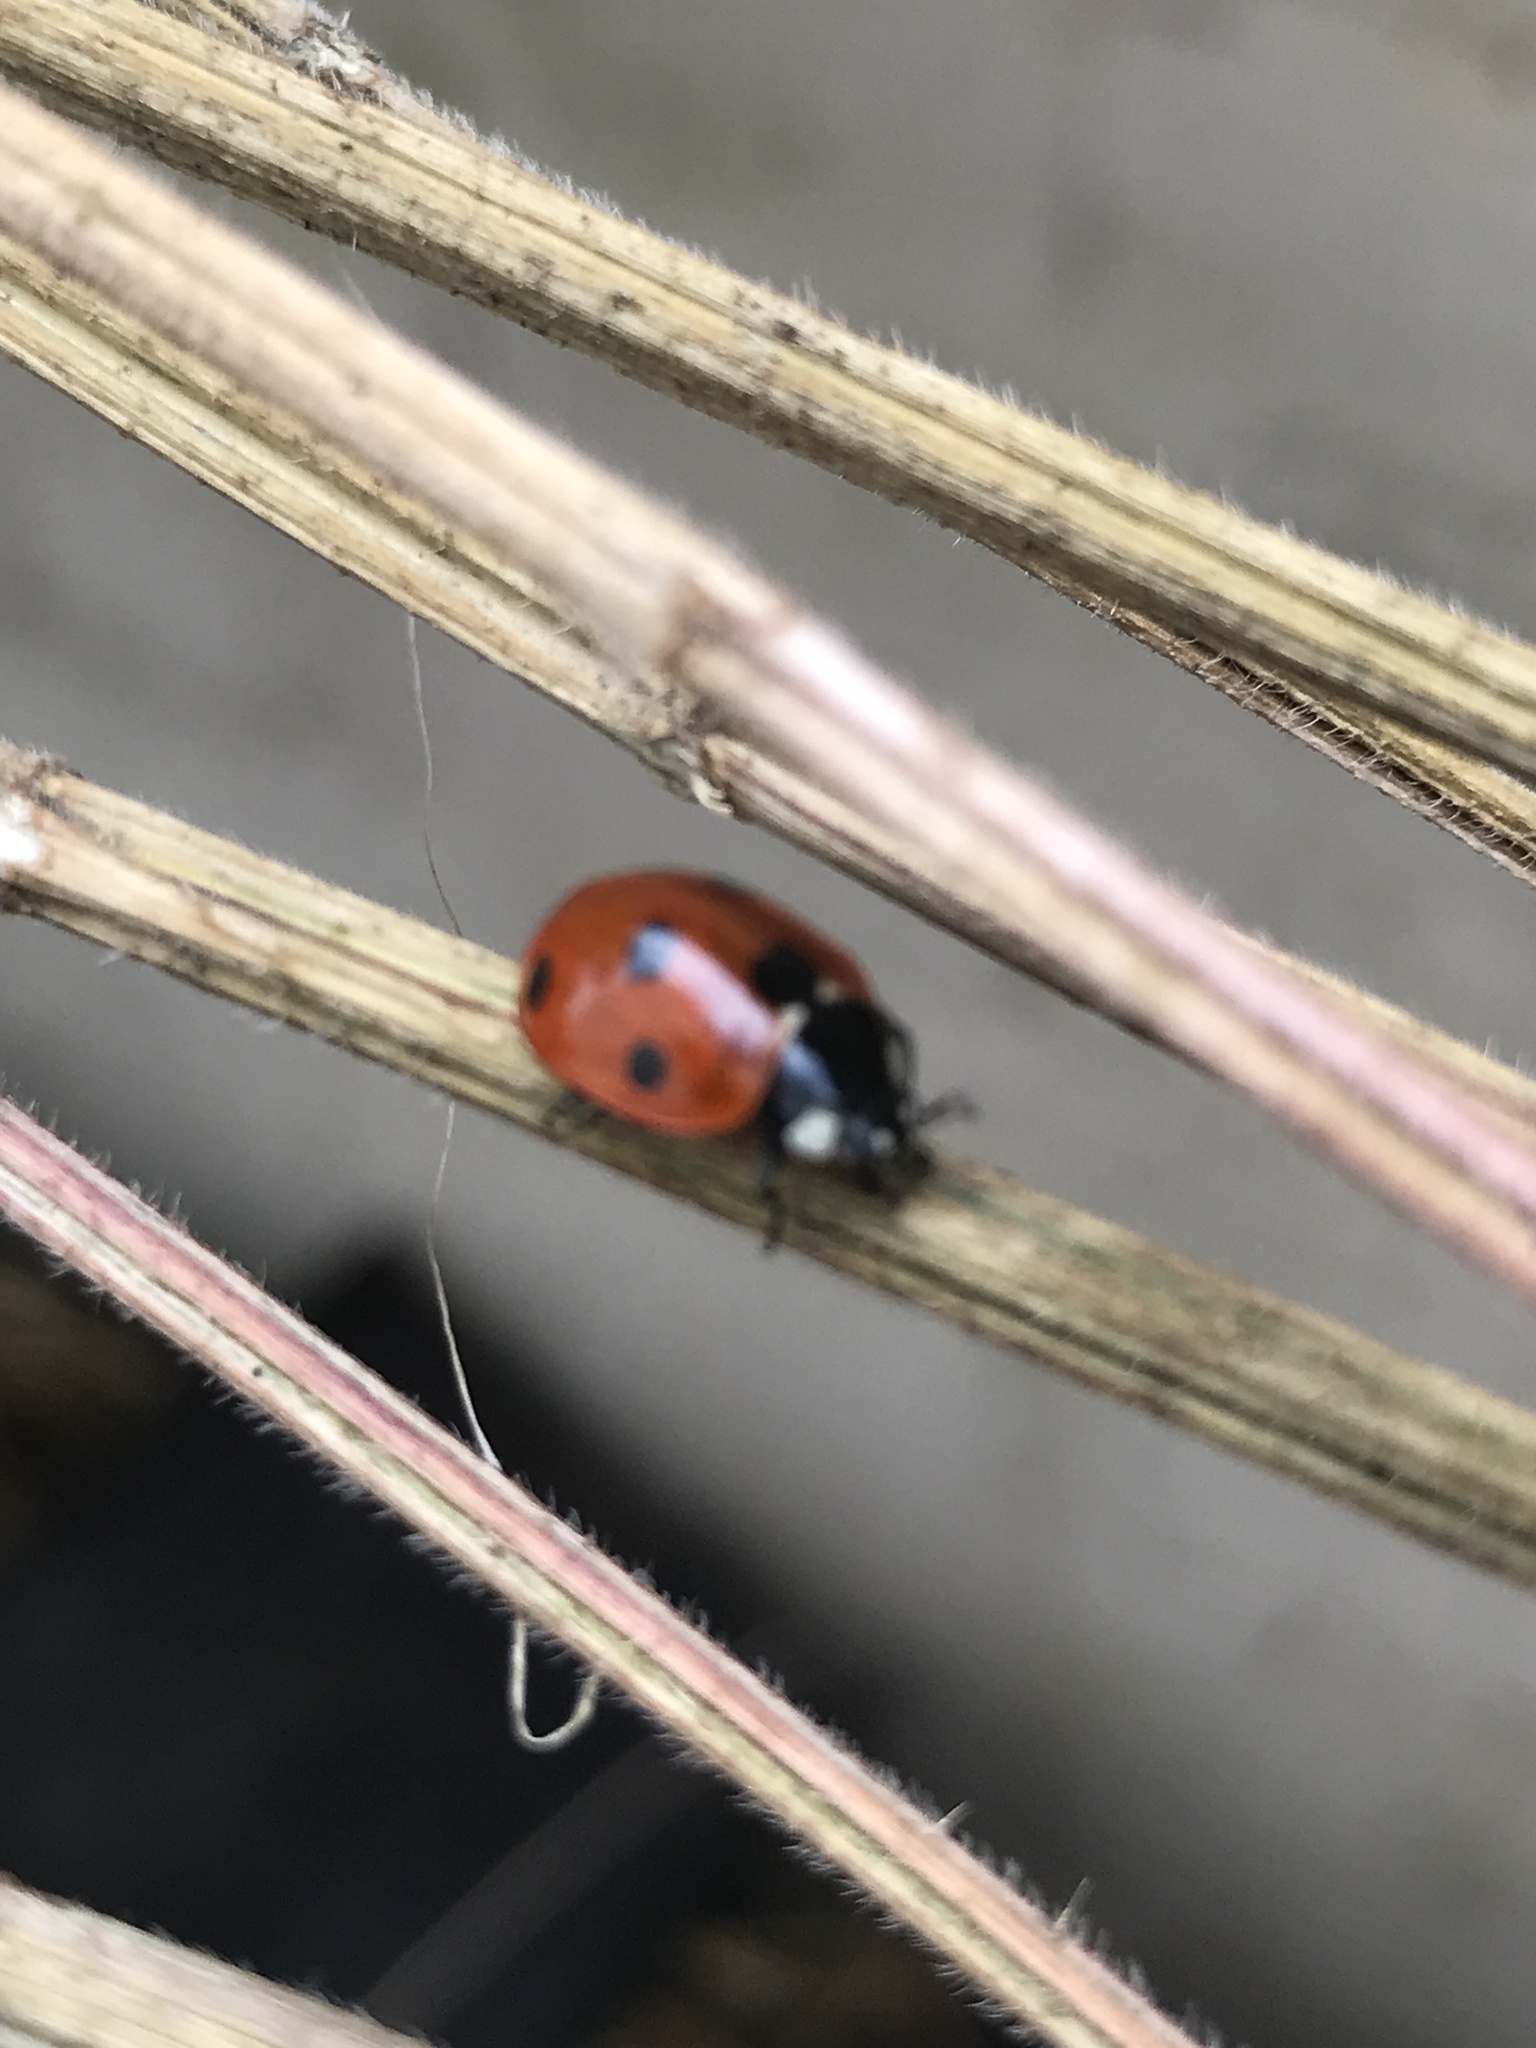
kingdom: Animalia
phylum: Arthropoda
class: Insecta
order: Coleoptera
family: Coccinellidae
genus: Coccinella
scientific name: Coccinella septempunctata
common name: Sevenspotted lady beetle
